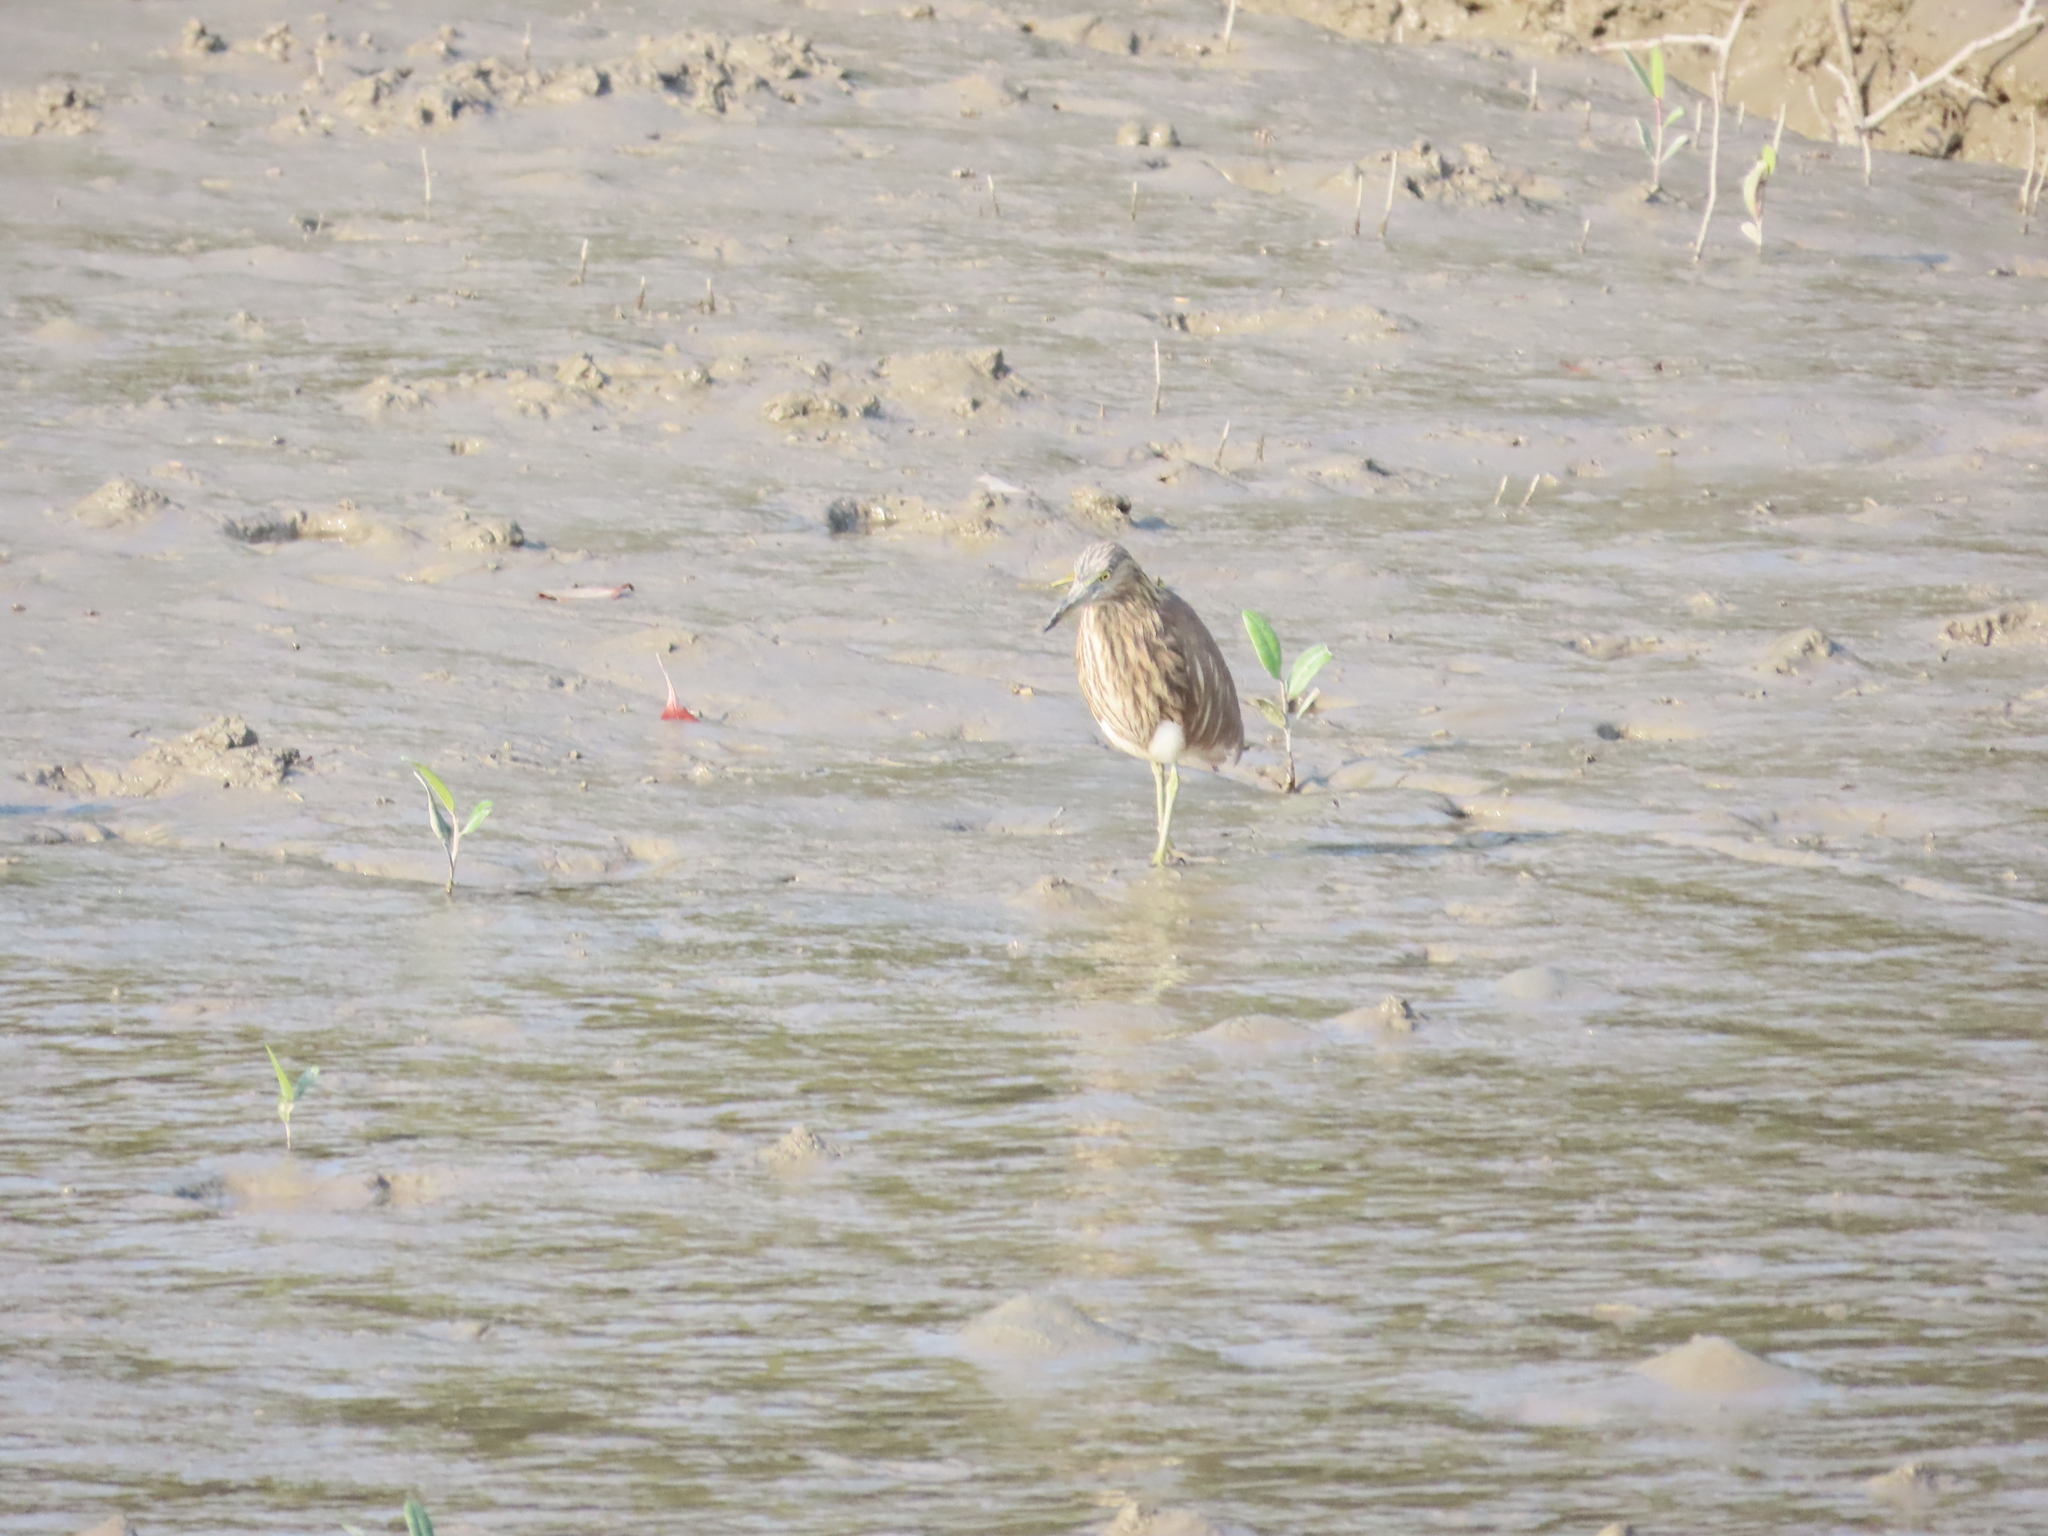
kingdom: Animalia
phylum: Chordata
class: Aves
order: Pelecaniformes
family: Ardeidae
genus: Ardeola
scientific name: Ardeola grayii
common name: Indian pond heron
